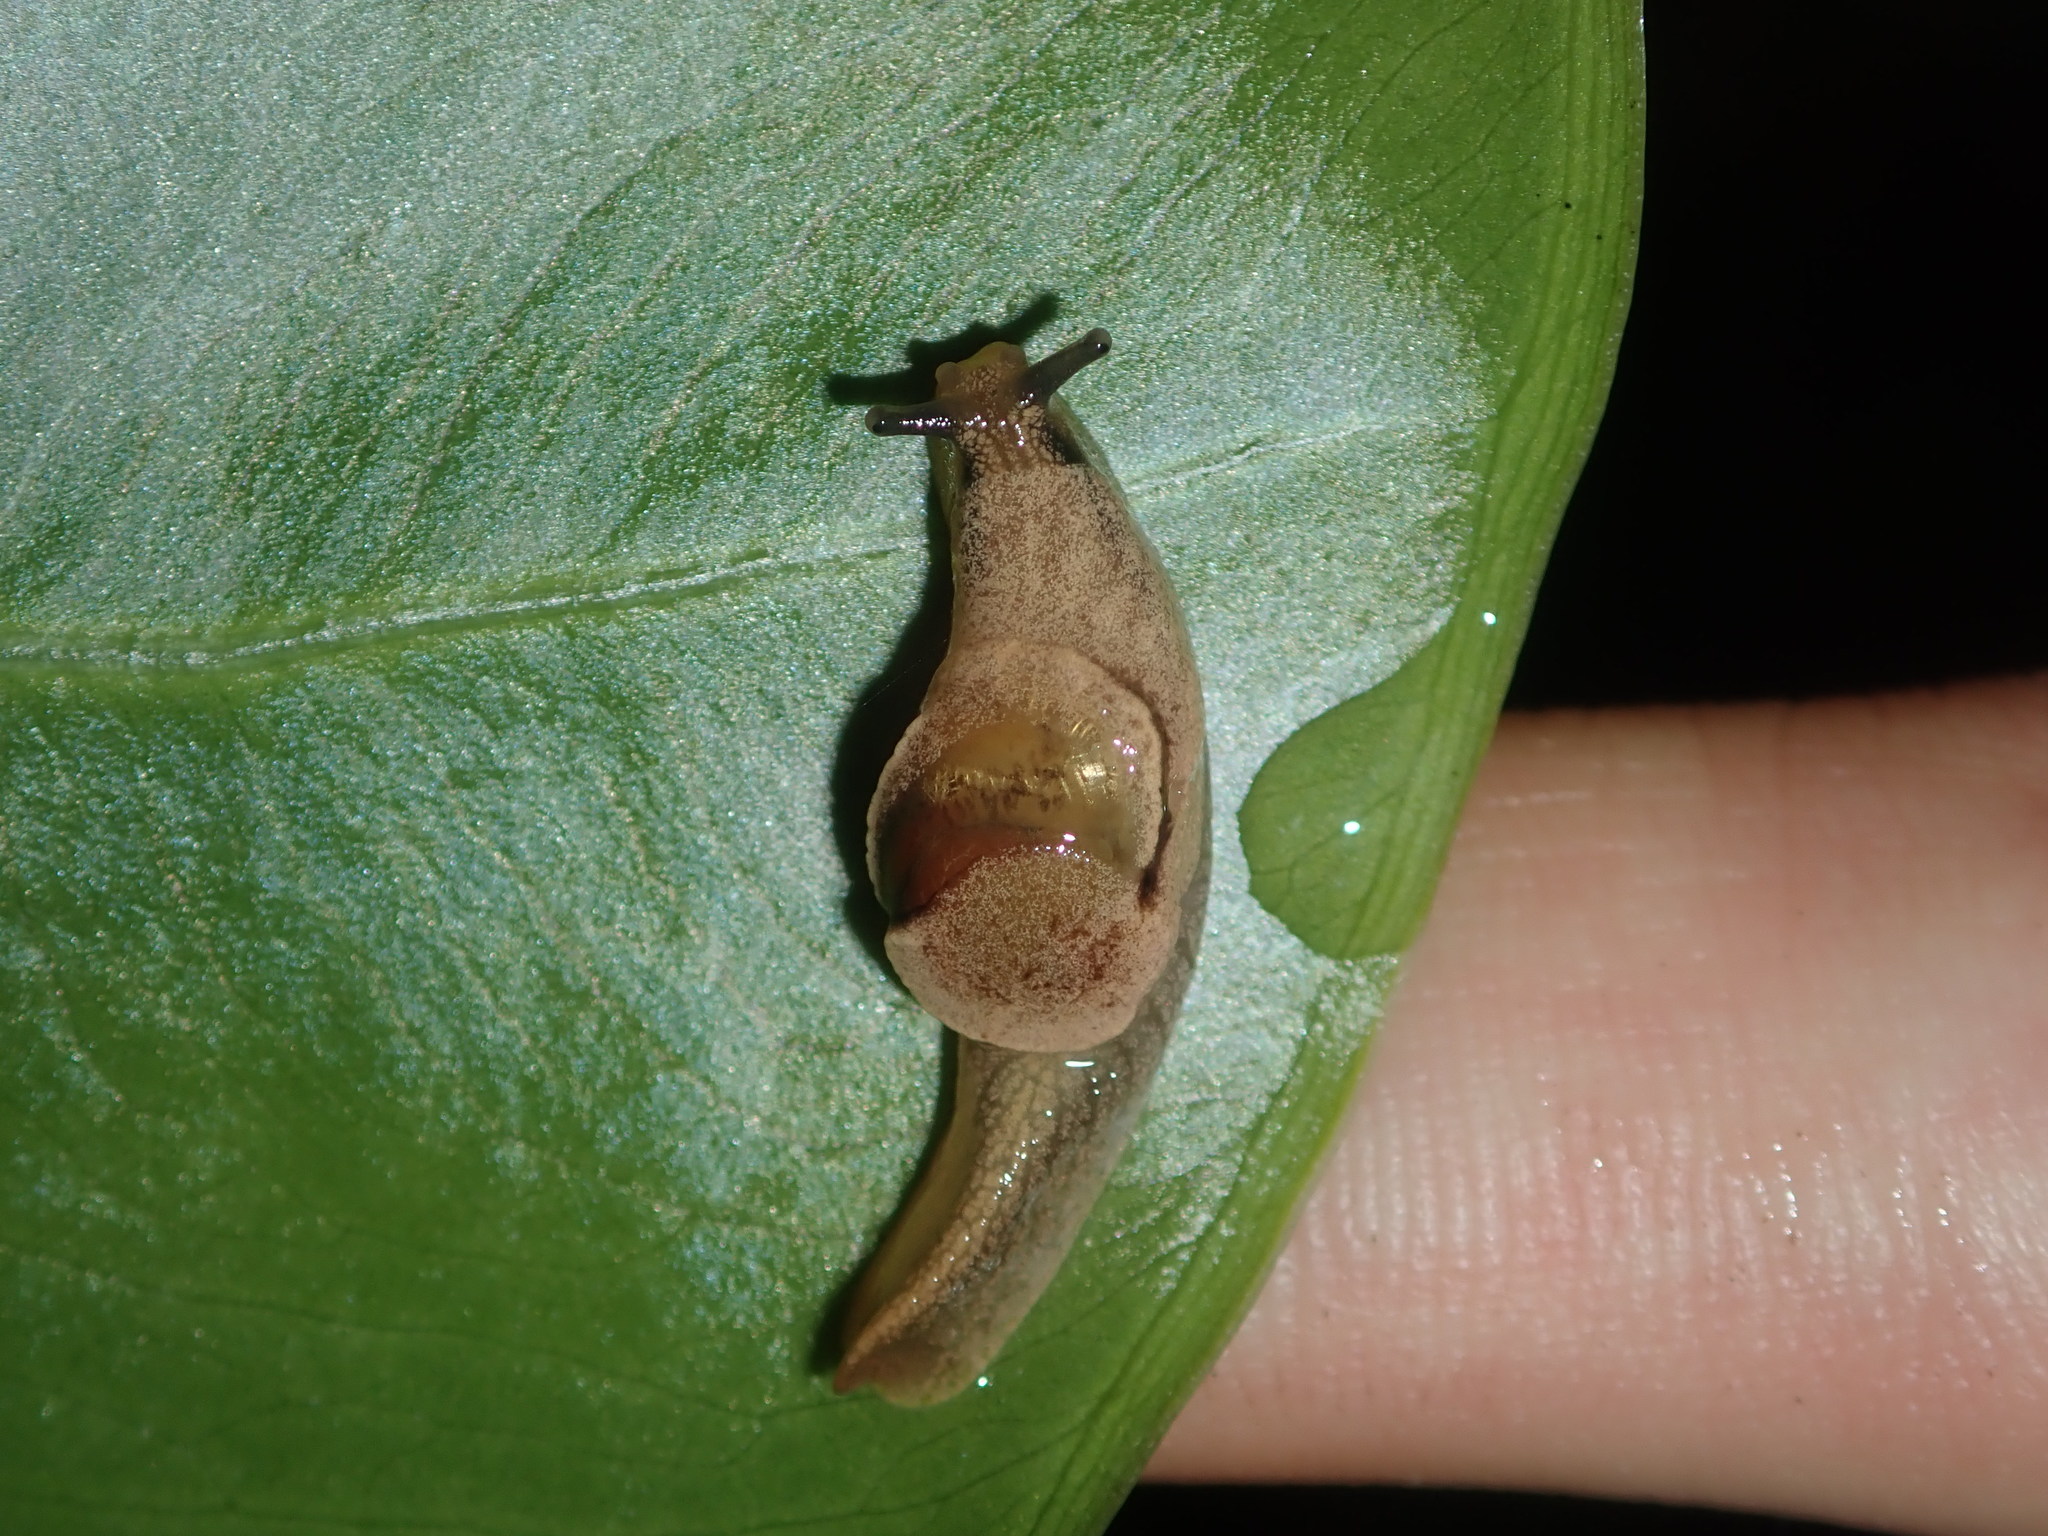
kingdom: Animalia
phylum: Mollusca
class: Gastropoda
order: Stylommatophora
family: Helicarionidae
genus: Ubiquitarion
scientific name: Ubiquitarion iridis
